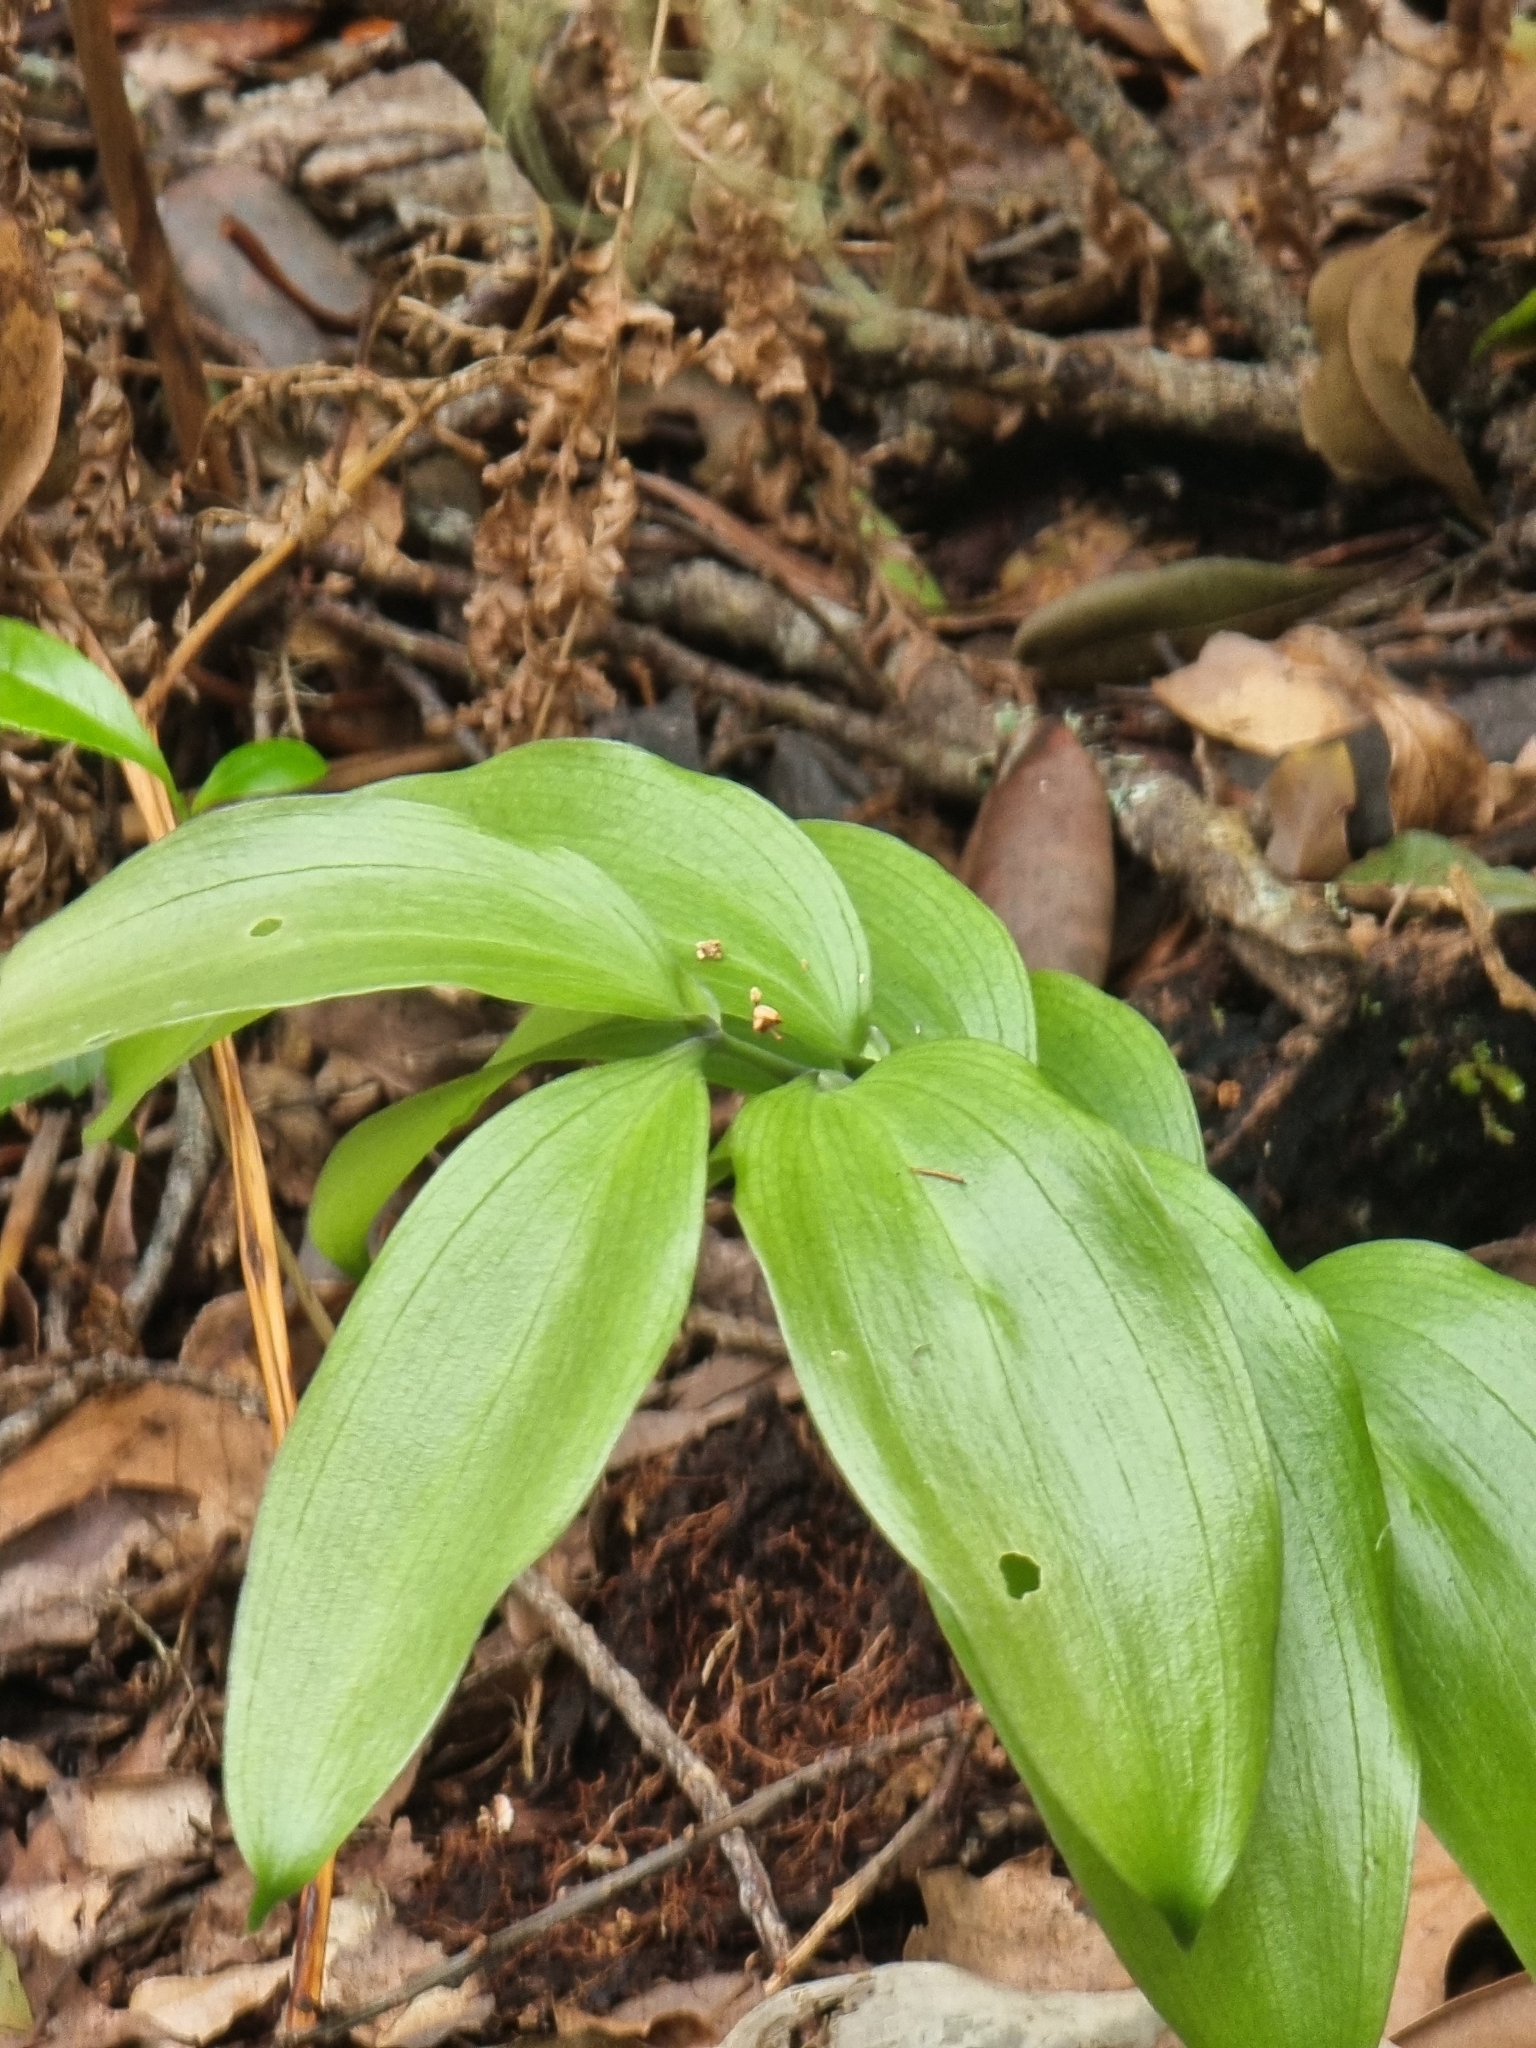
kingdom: Plantae
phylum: Tracheophyta
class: Liliopsida
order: Asparagales
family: Asparagaceae
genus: Ruscus
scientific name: Ruscus streptophyllus
